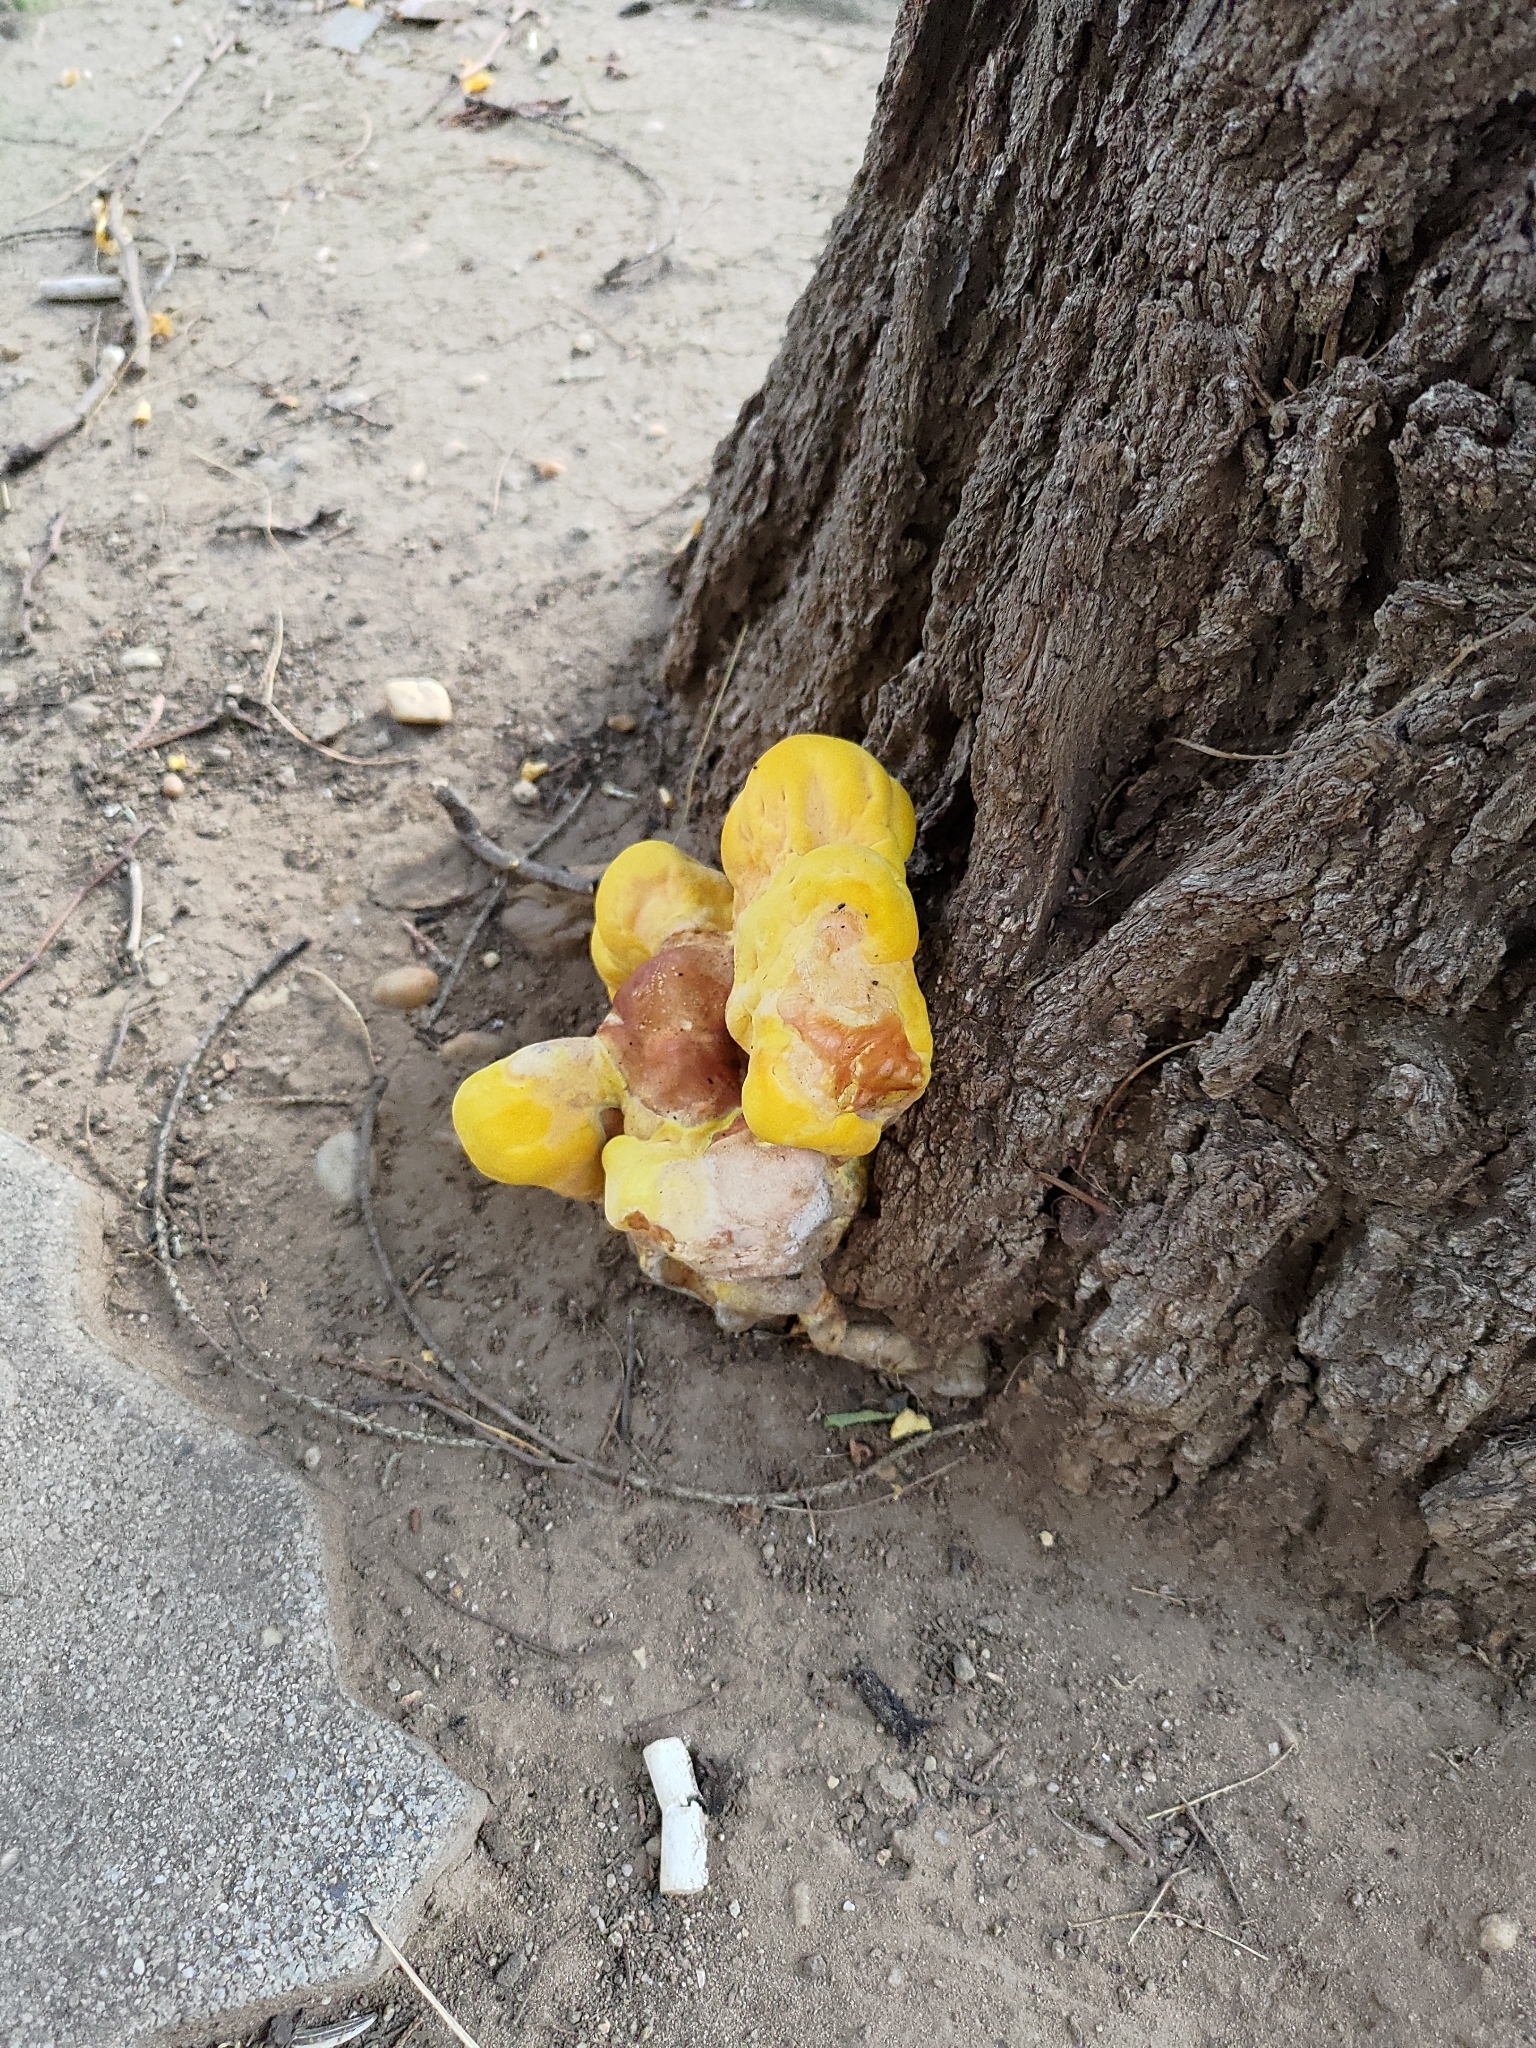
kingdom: Fungi
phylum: Basidiomycota
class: Agaricomycetes
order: Polyporales
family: Laetiporaceae
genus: Laetiporus
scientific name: Laetiporus sulphureus
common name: Chicken of the woods
